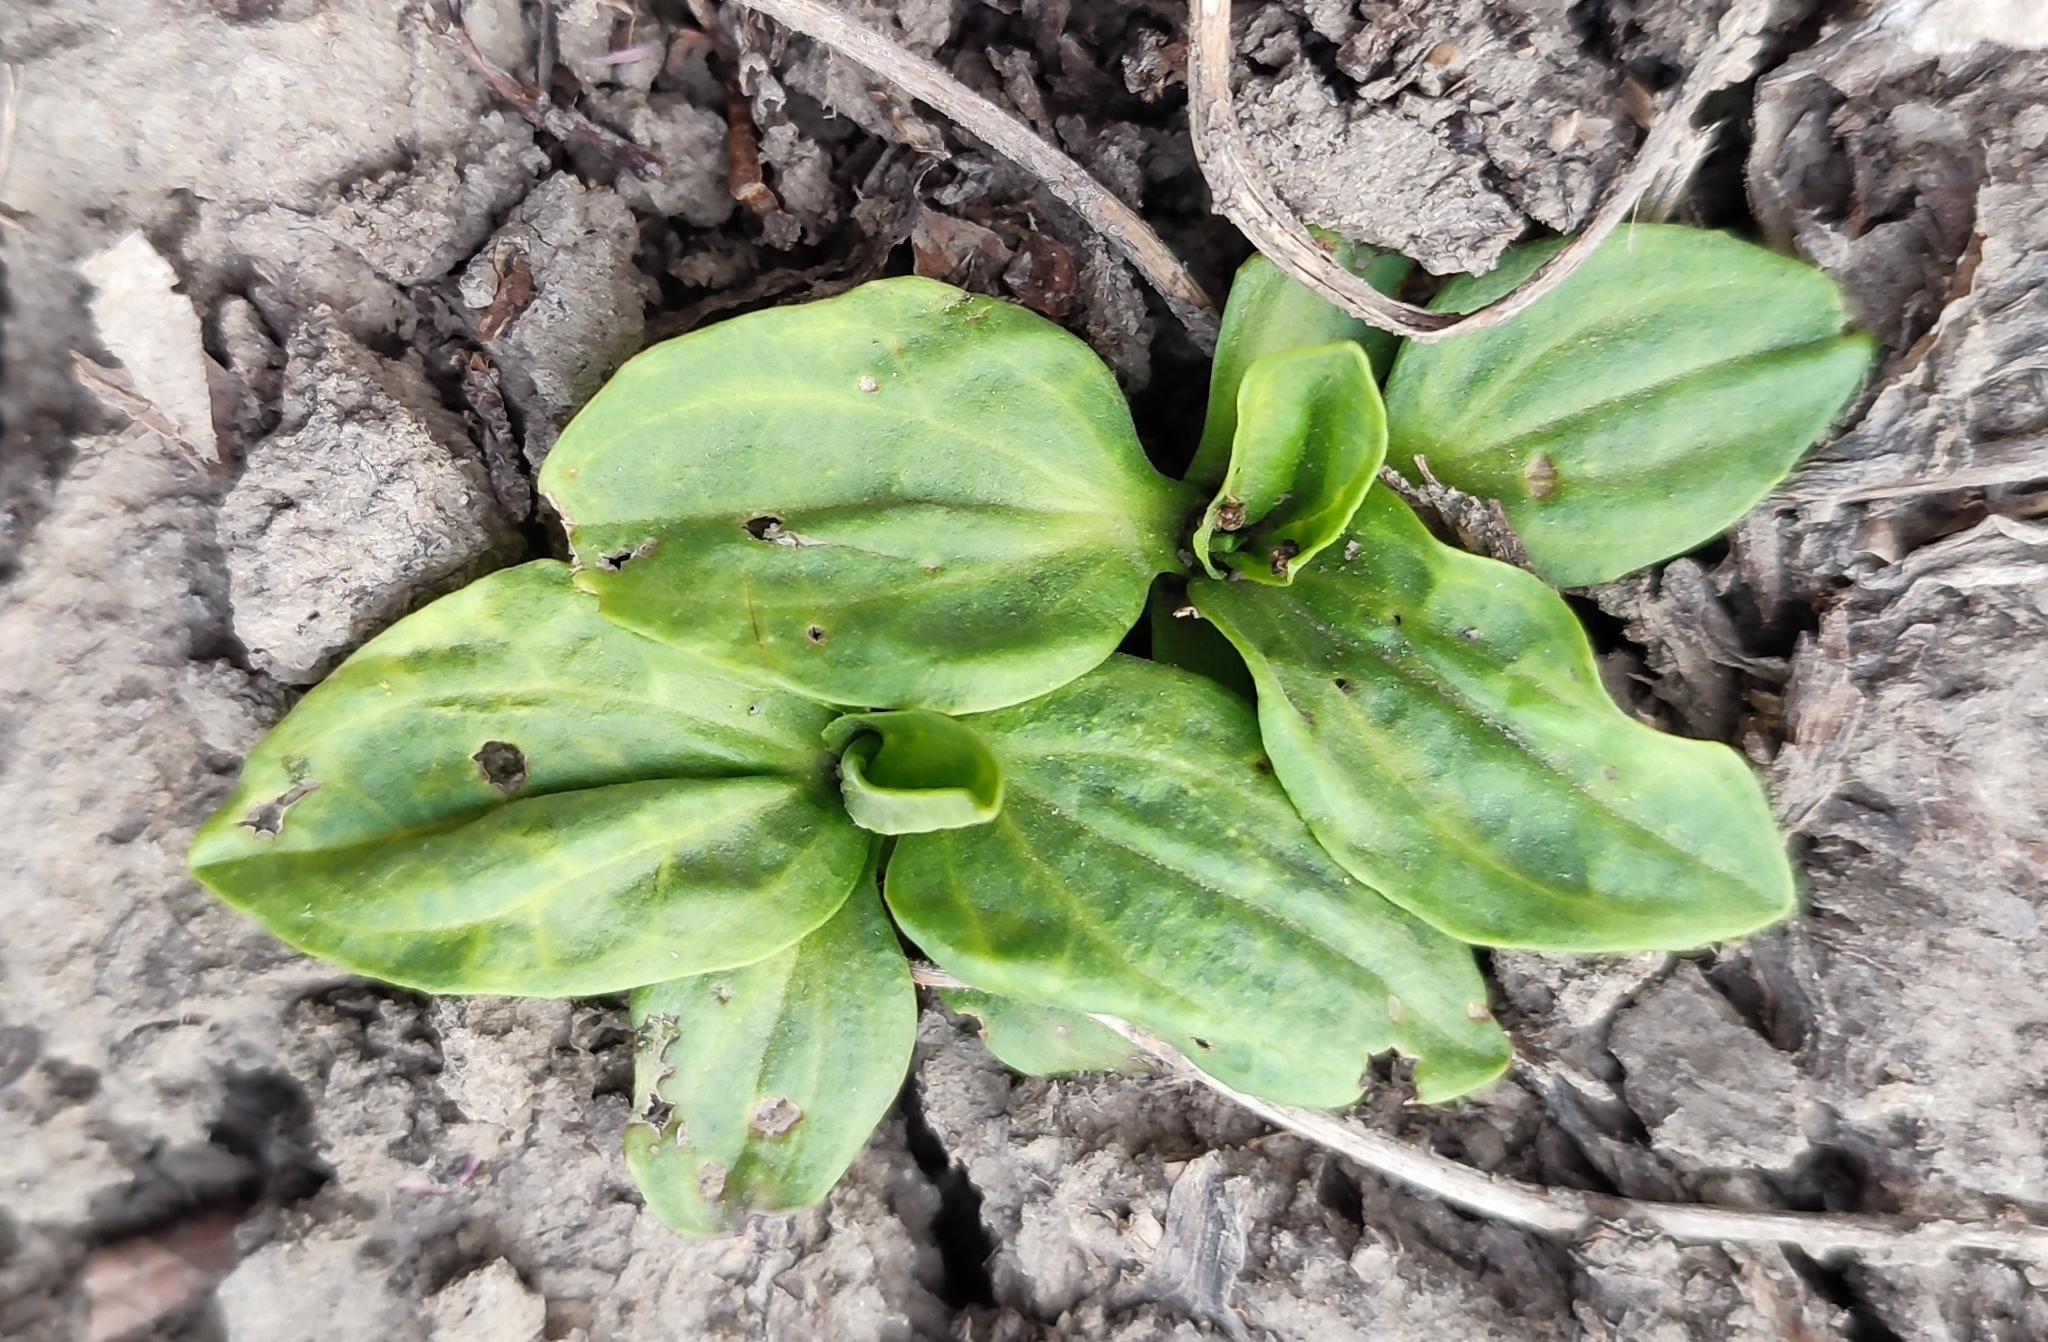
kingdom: Plantae
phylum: Tracheophyta
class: Magnoliopsida
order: Lamiales
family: Plantaginaceae
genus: Plantago
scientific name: Plantago major
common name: Common plantain
